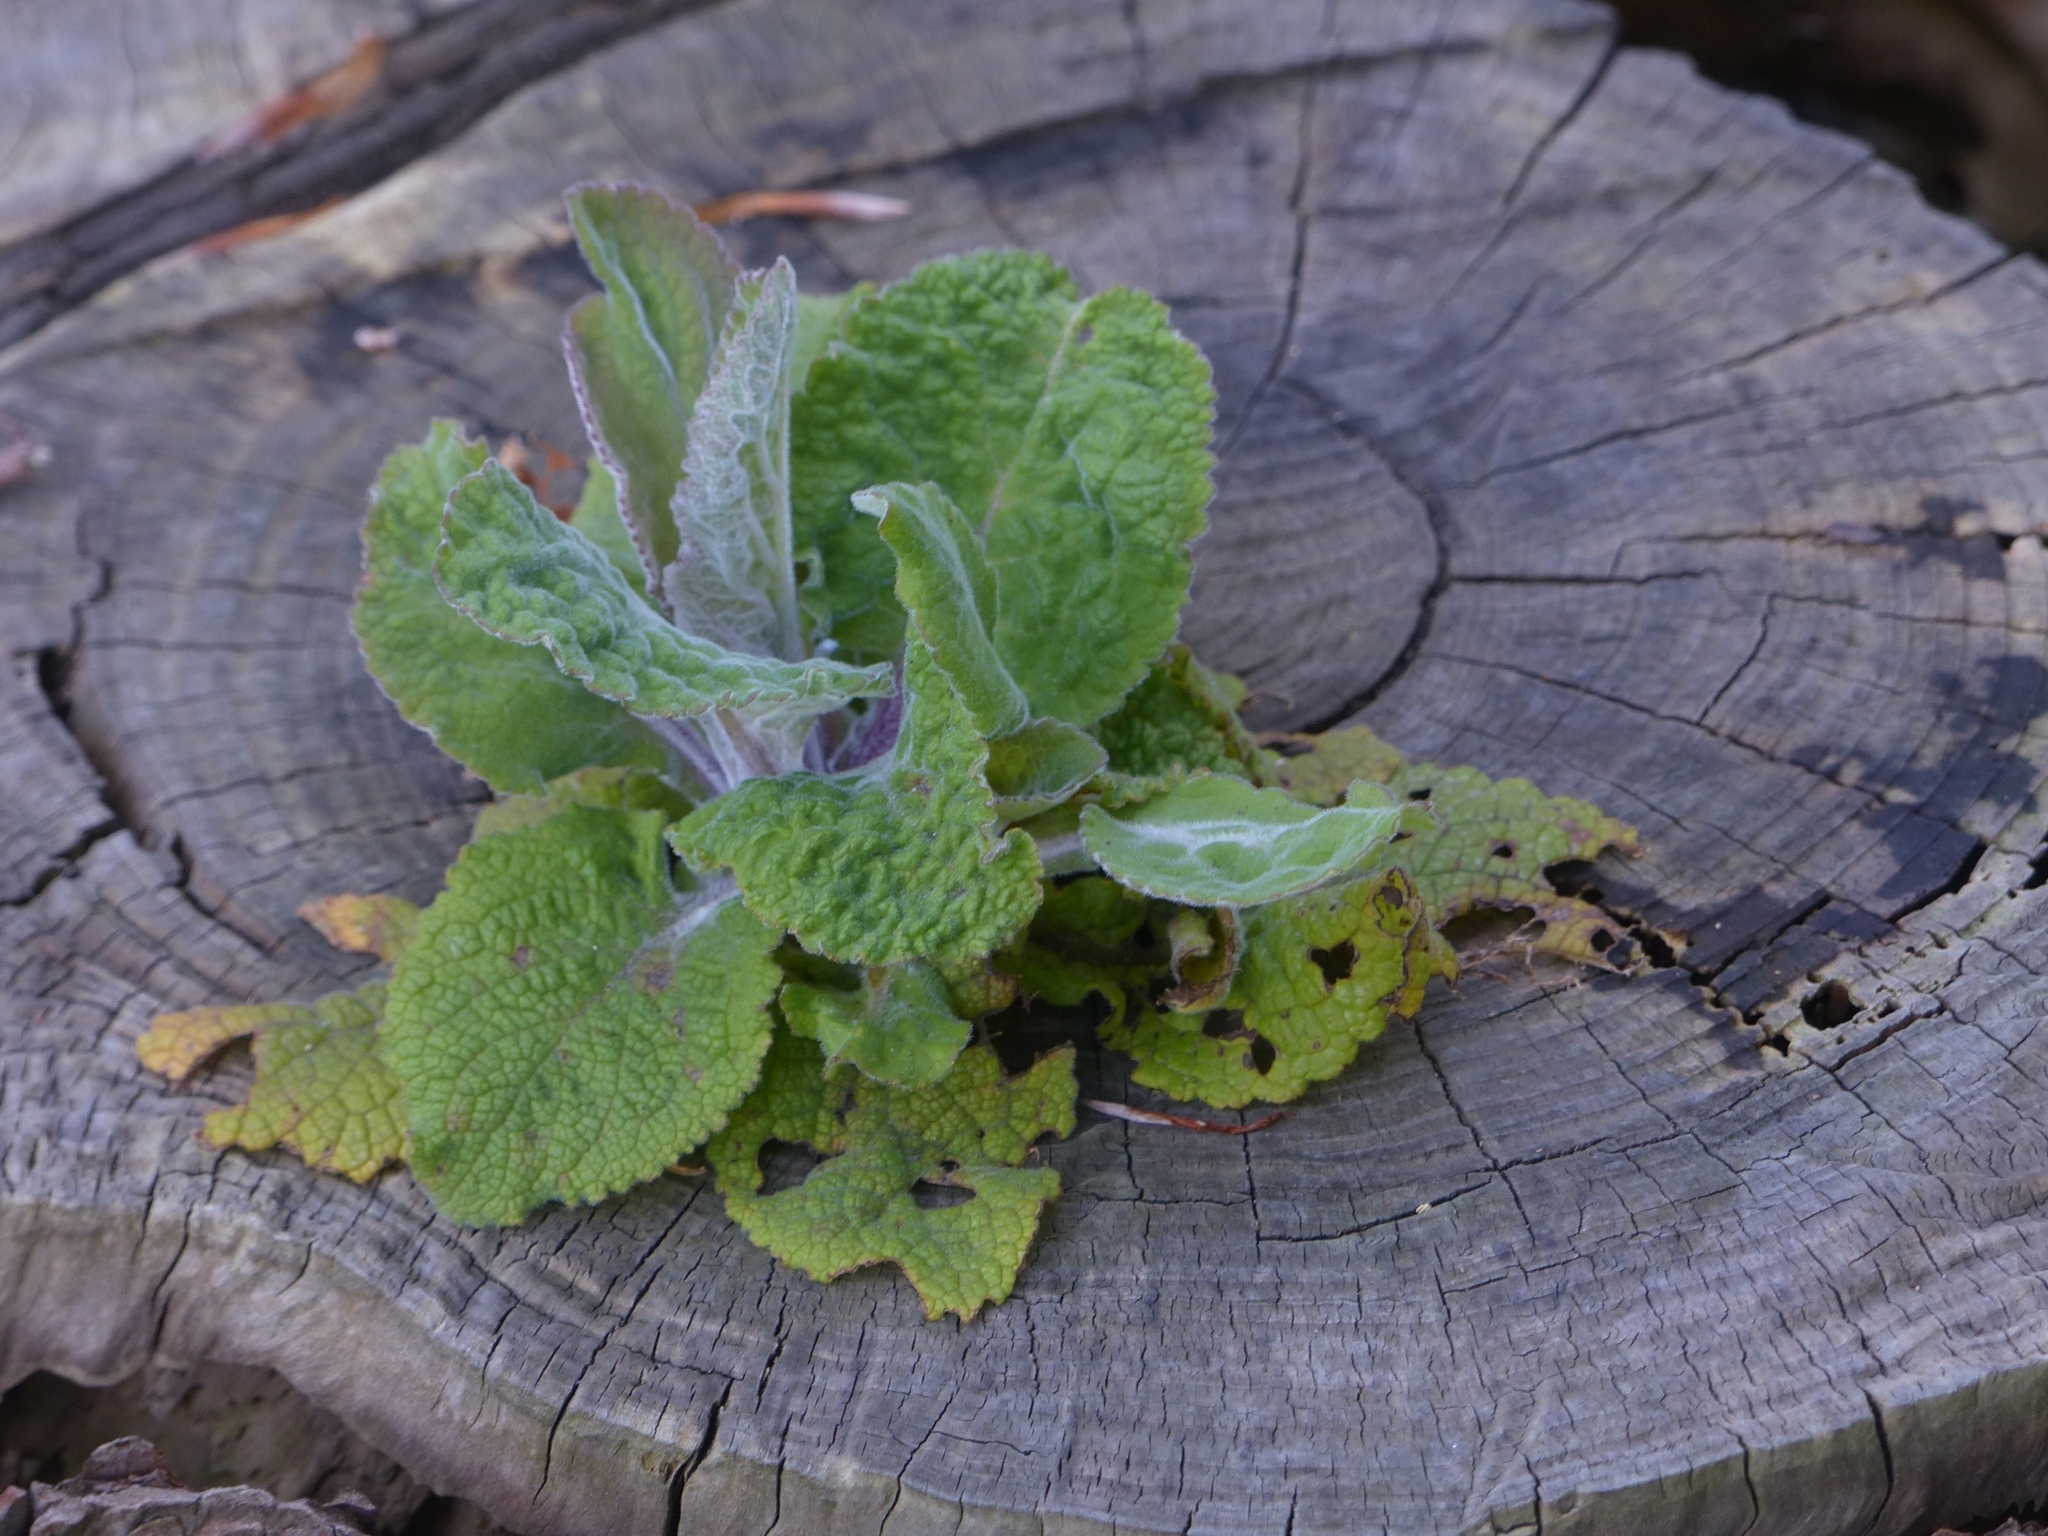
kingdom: Plantae
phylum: Tracheophyta
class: Magnoliopsida
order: Lamiales
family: Plantaginaceae
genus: Digitalis
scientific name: Digitalis purpurea
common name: Foxglove
